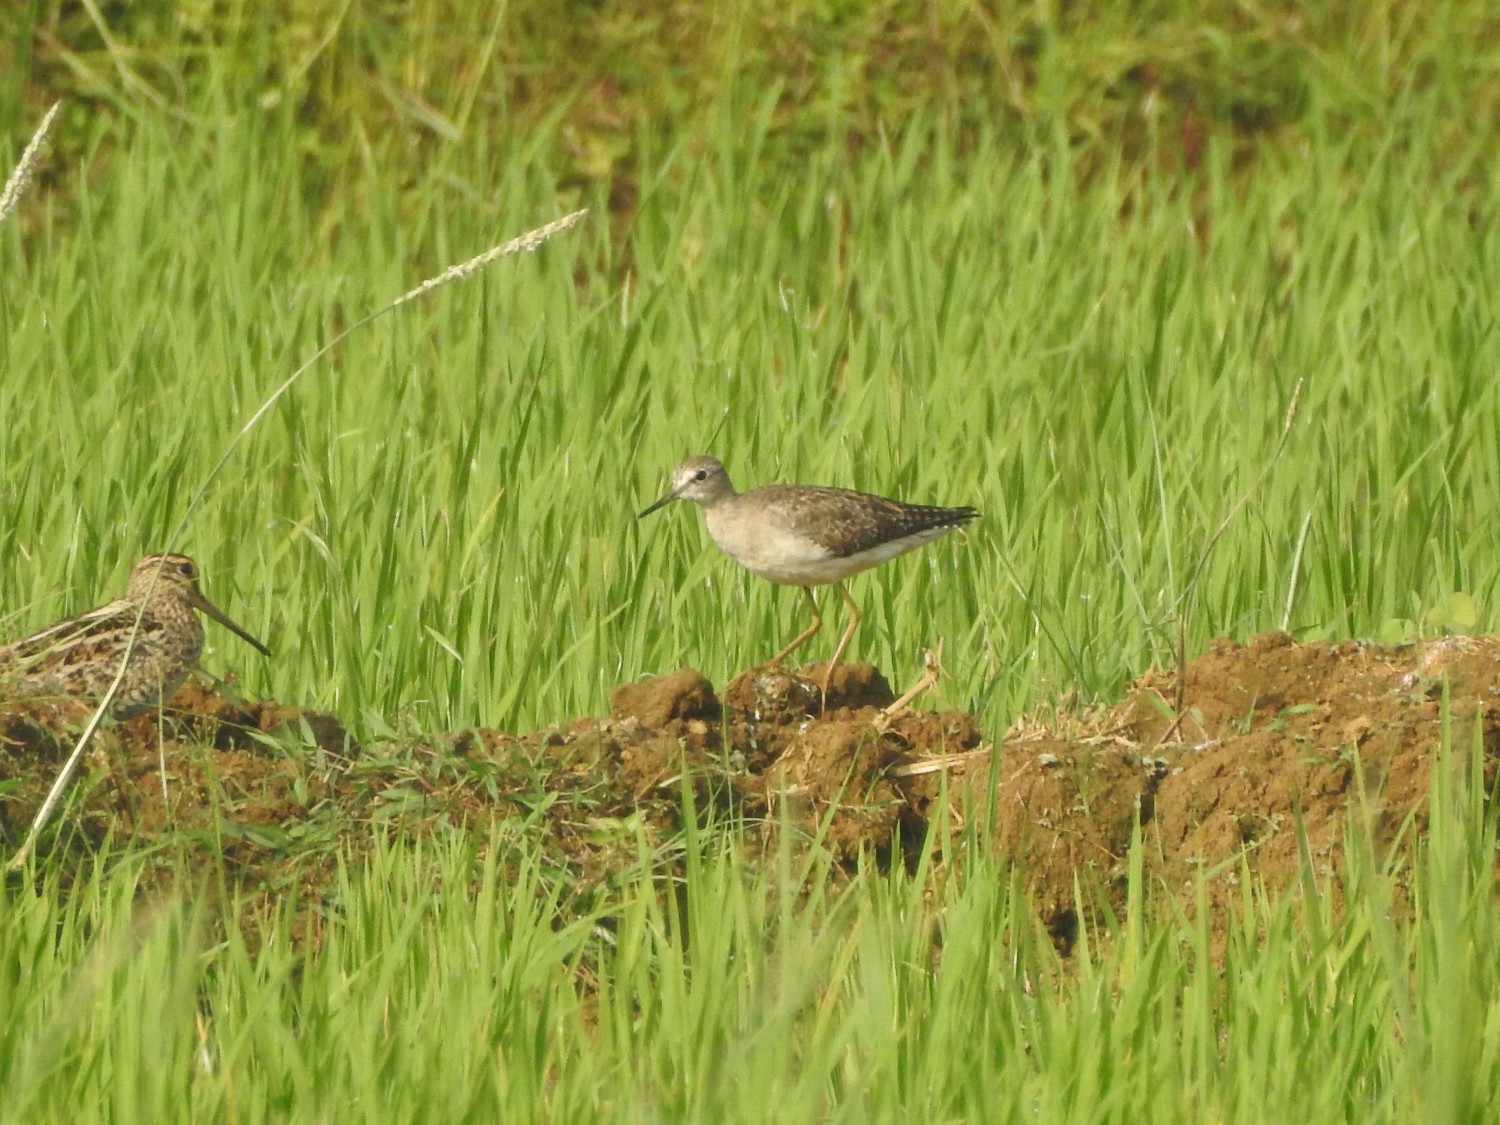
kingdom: Animalia
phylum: Chordata
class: Aves
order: Charadriiformes
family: Scolopacidae
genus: Tringa
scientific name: Tringa glareola
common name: Wood sandpiper
